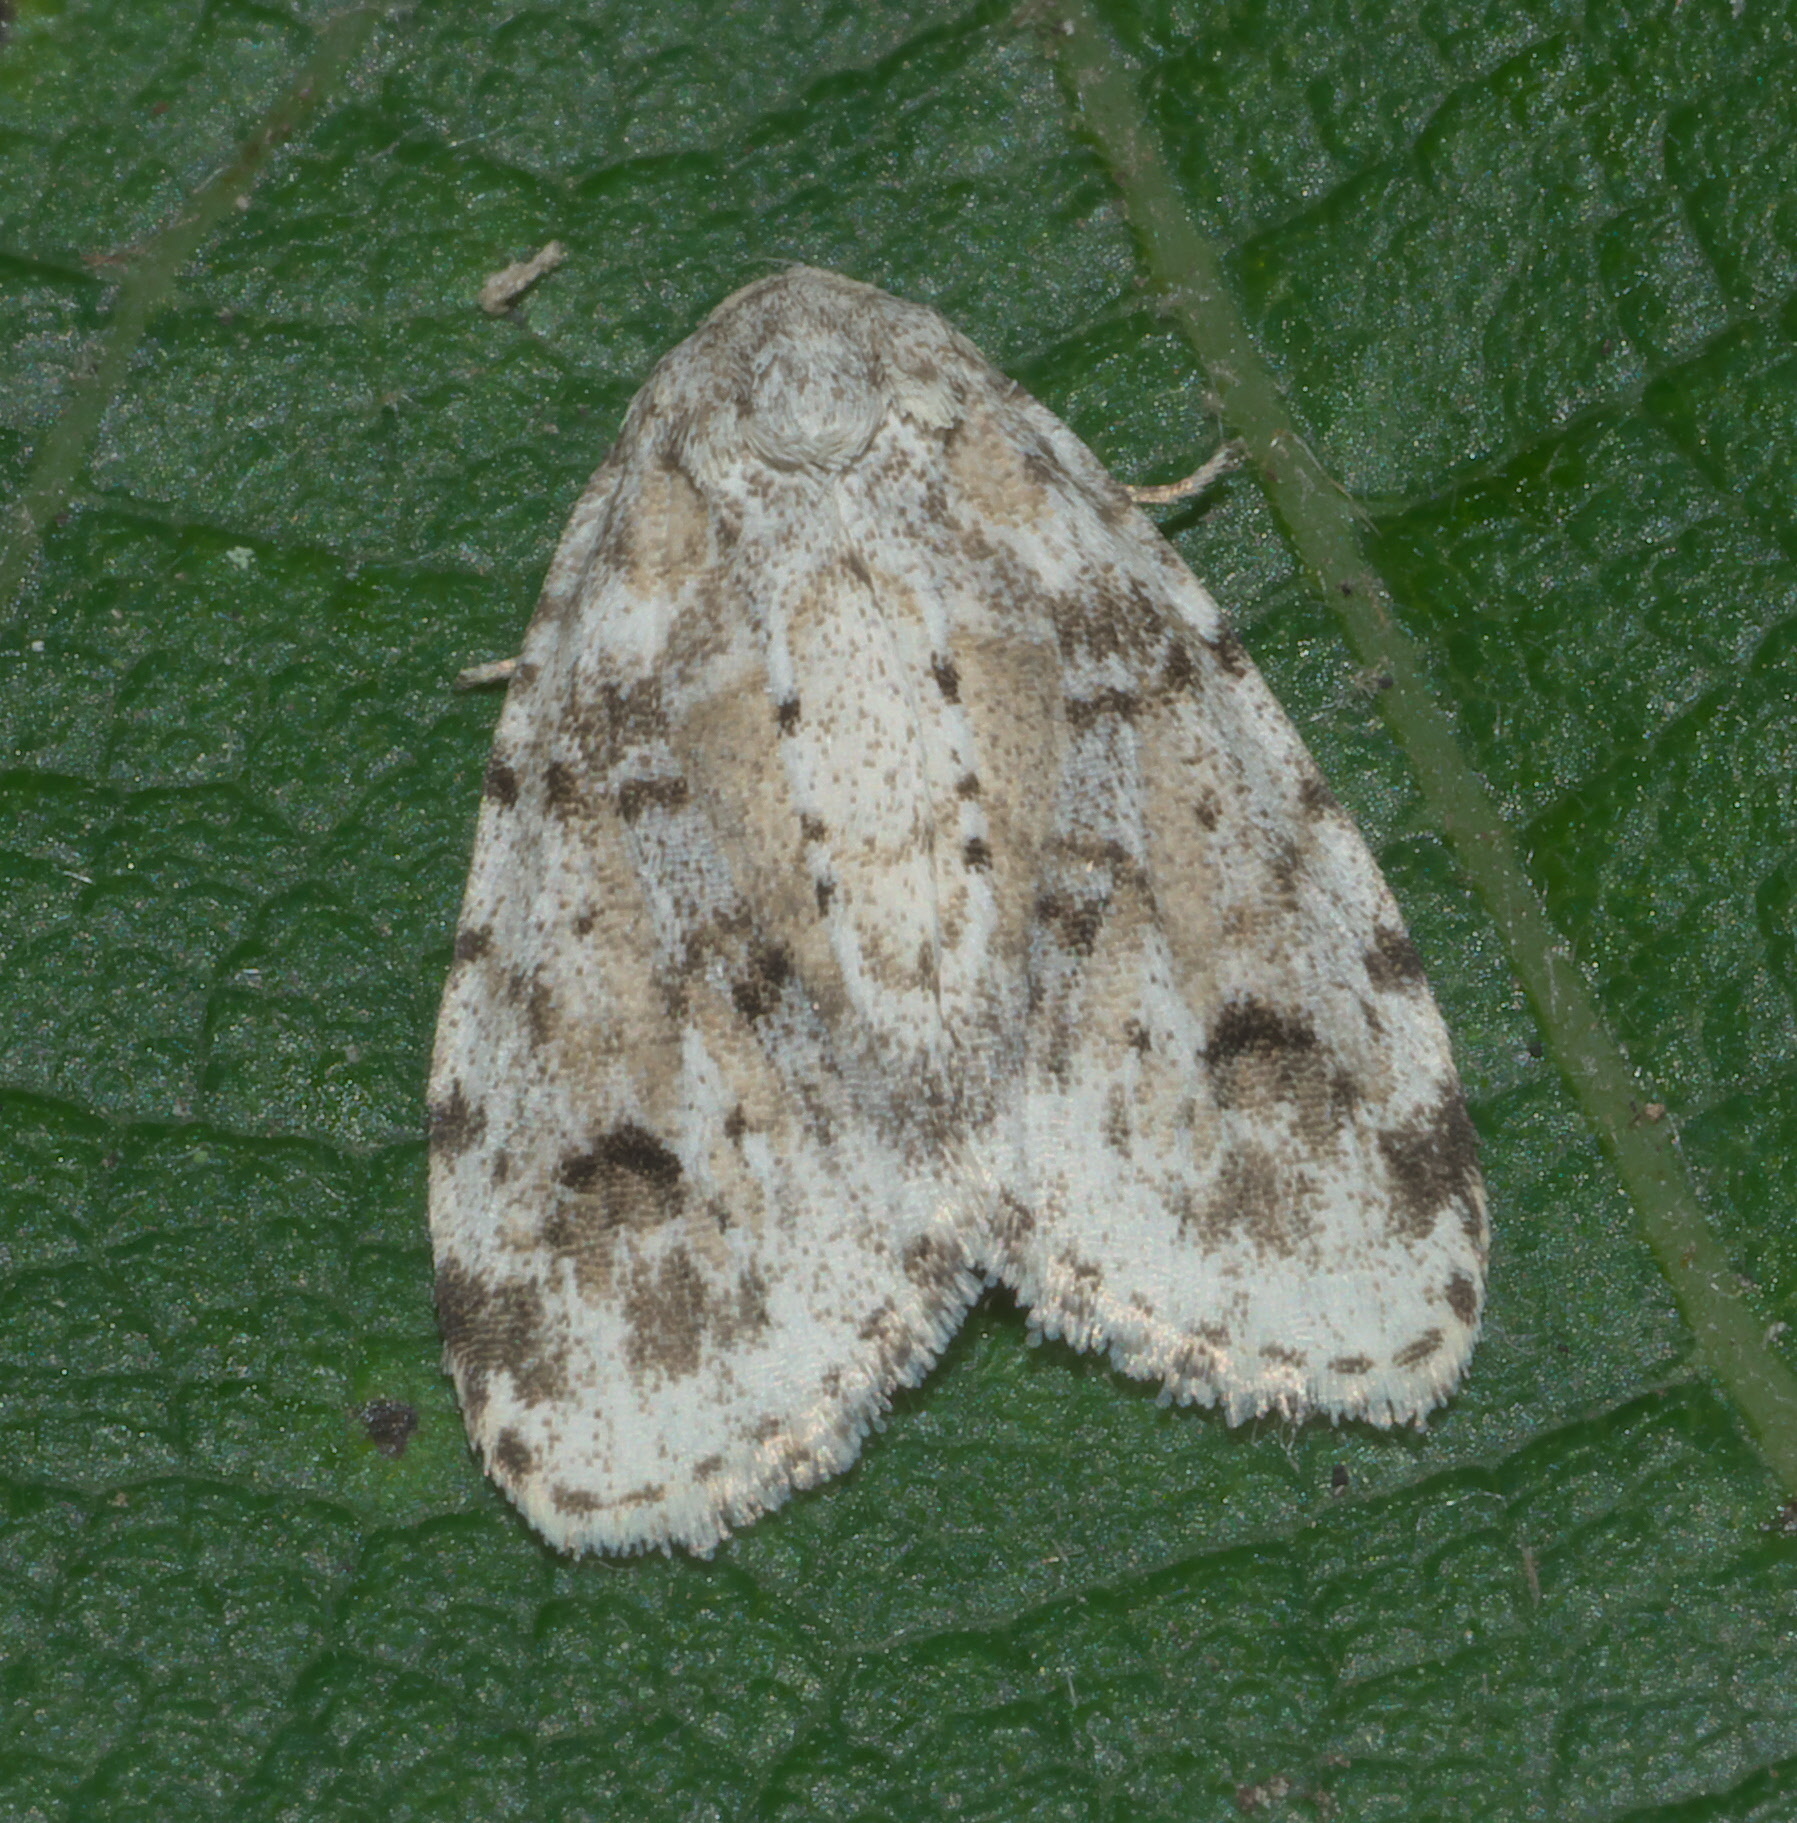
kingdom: Animalia
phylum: Arthropoda
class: Insecta
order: Lepidoptera
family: Erebidae
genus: Clemensia
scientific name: Clemensia albata
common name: Little white lichen moth
